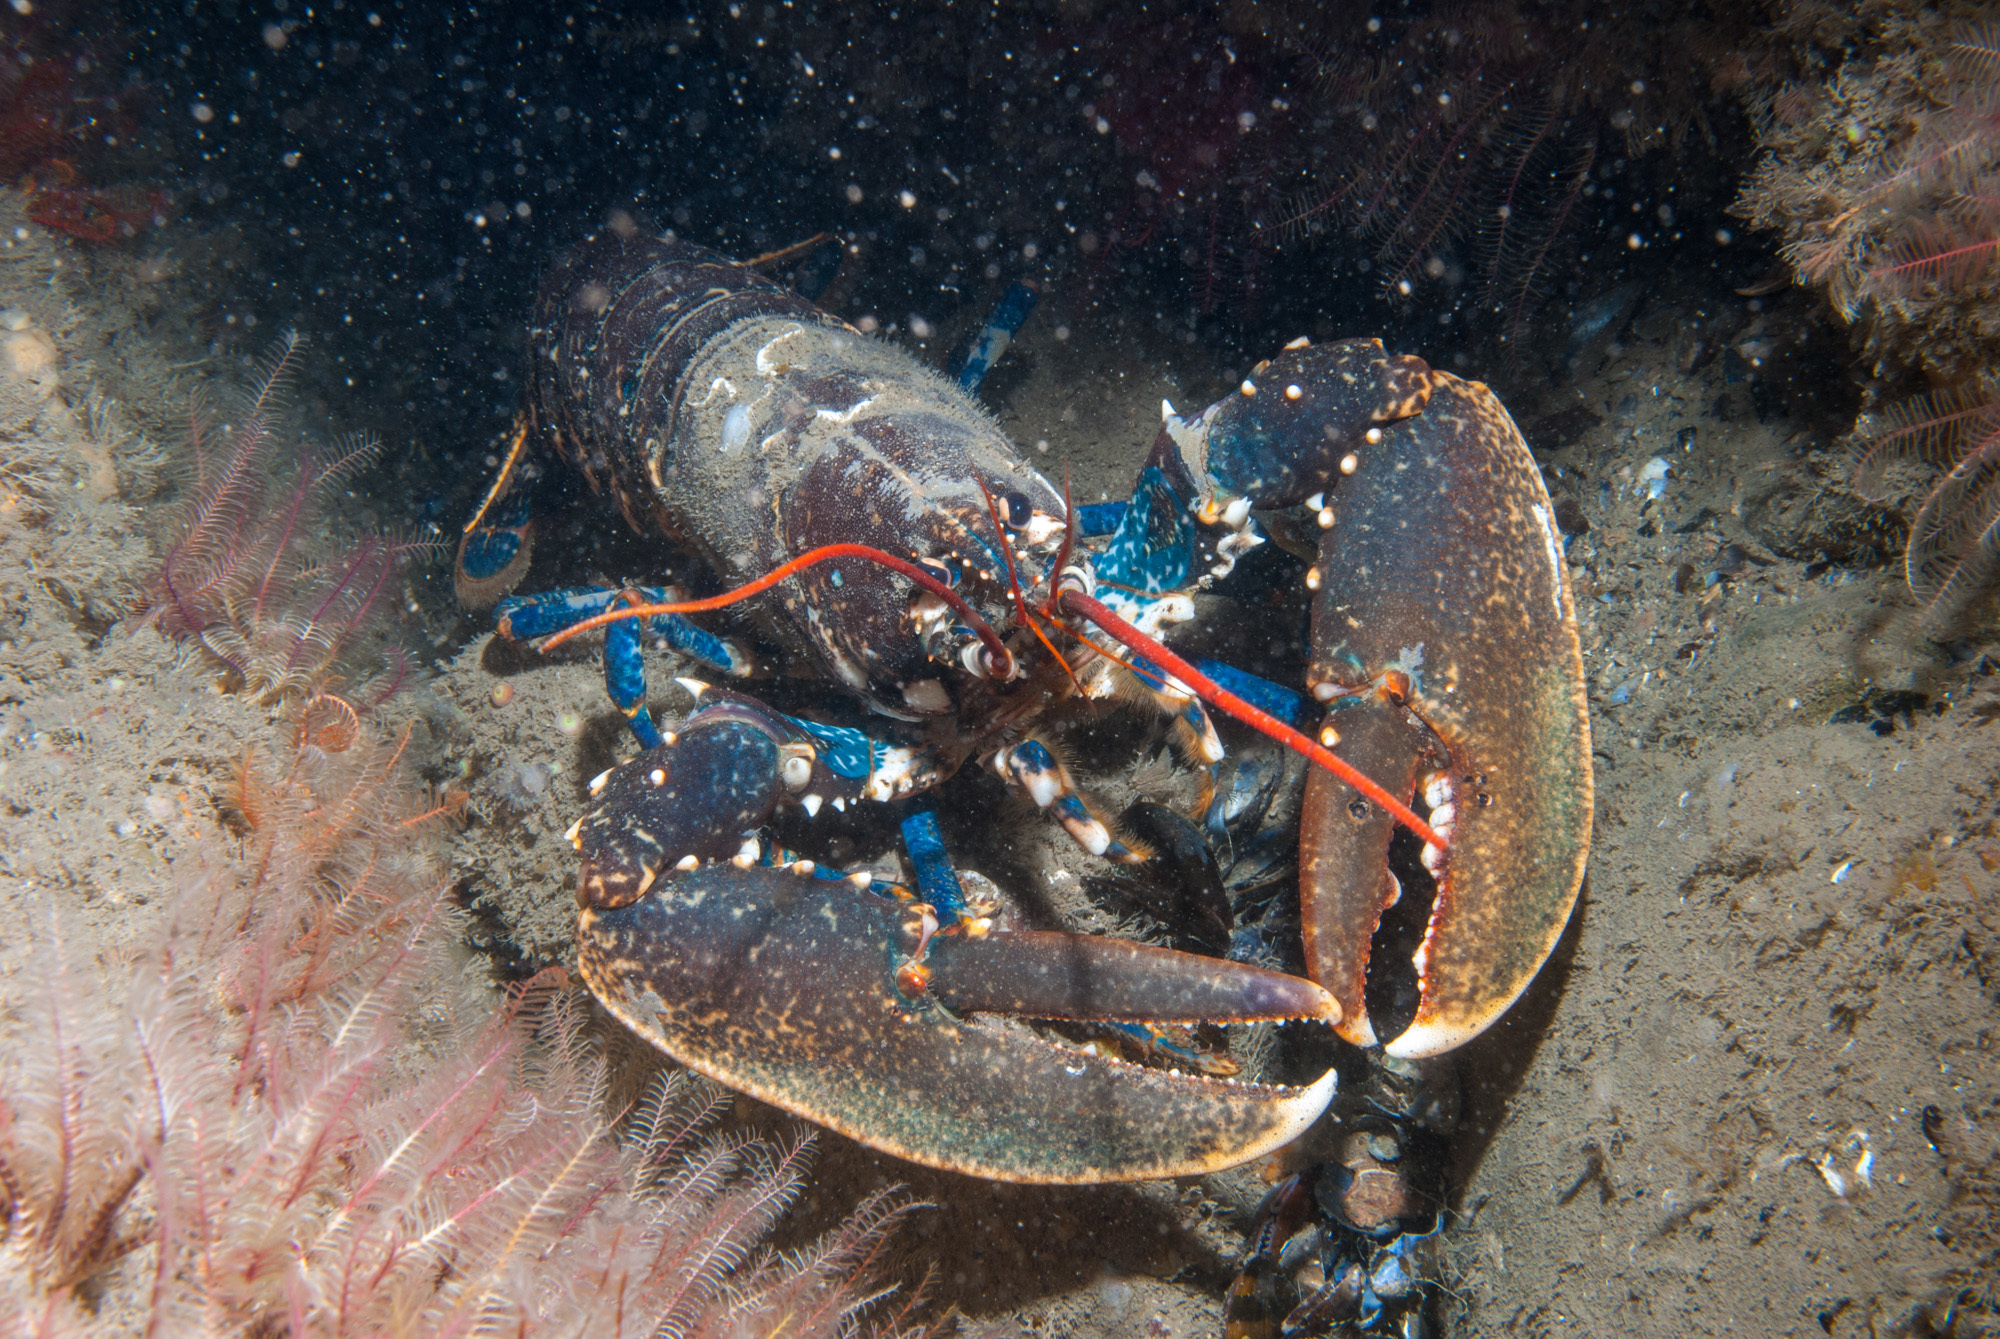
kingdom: Animalia
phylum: Arthropoda
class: Malacostraca
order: Decapoda
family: Nephropidae
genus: Homarus
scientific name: Homarus gammarus
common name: European lobster
